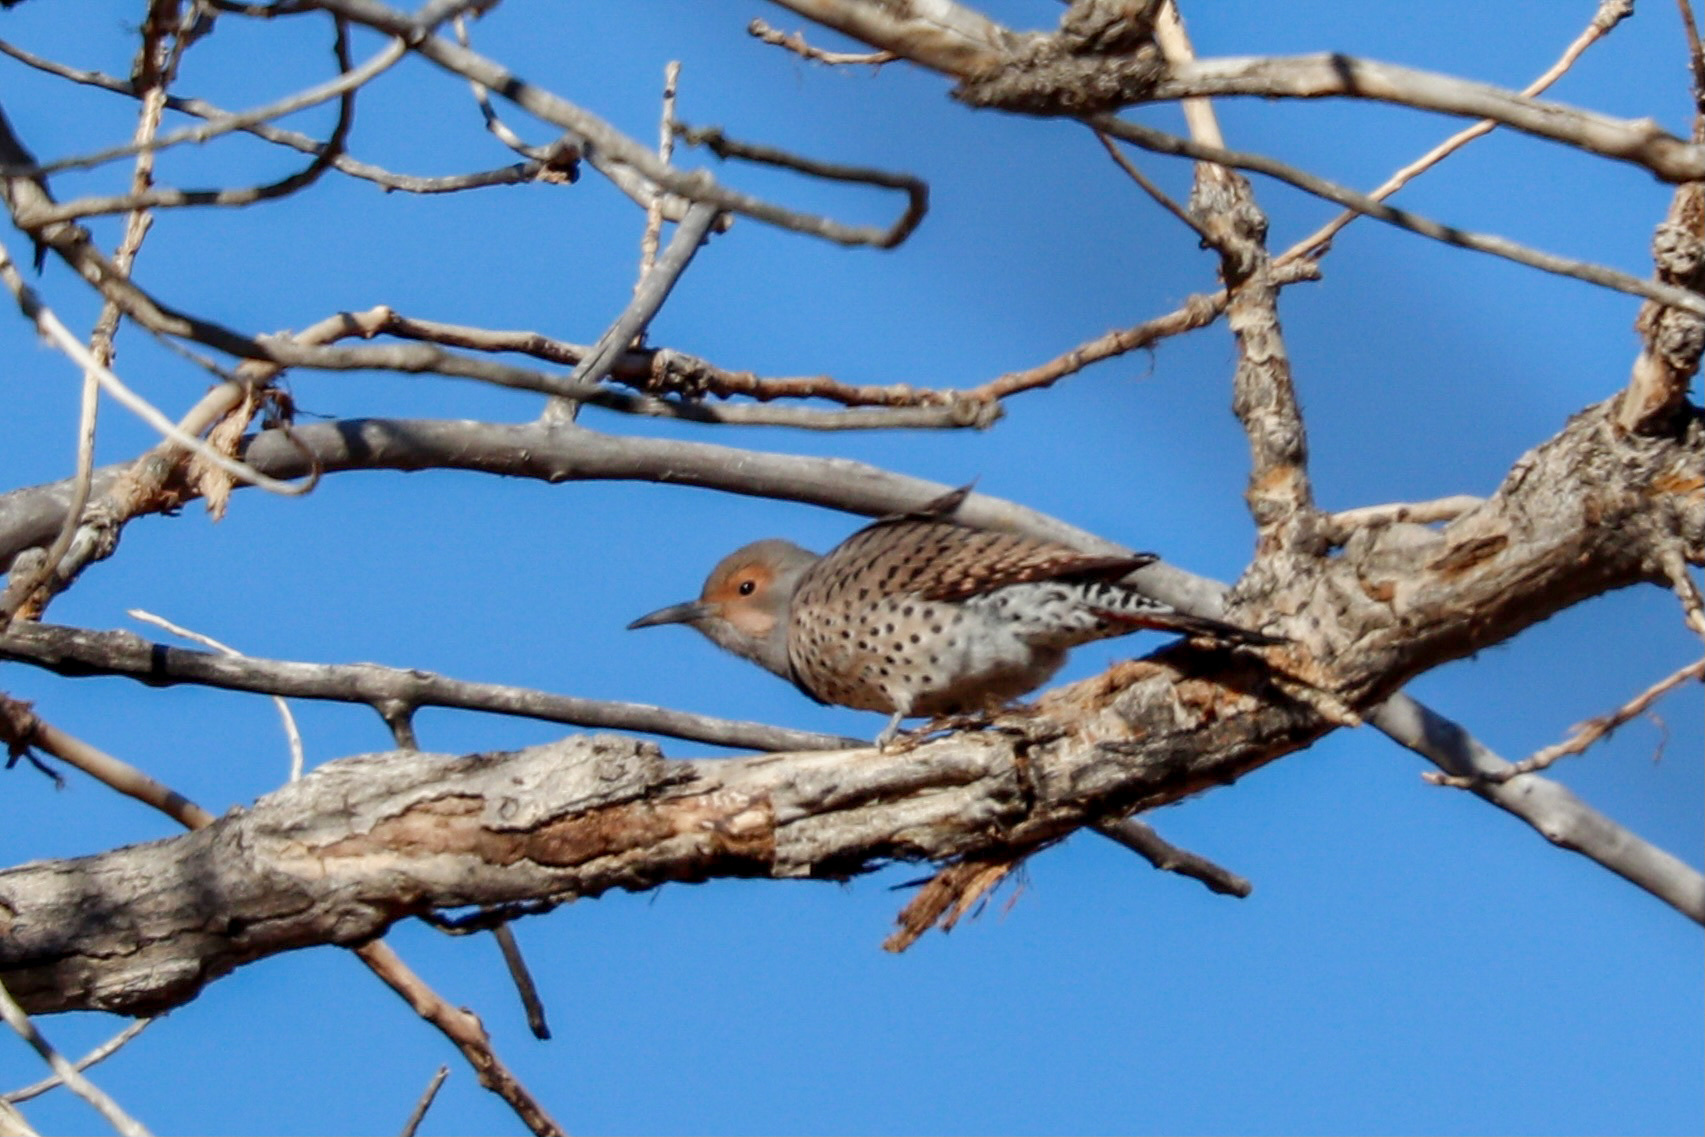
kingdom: Animalia
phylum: Chordata
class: Aves
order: Piciformes
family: Picidae
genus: Colaptes
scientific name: Colaptes auratus
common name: Northern flicker
